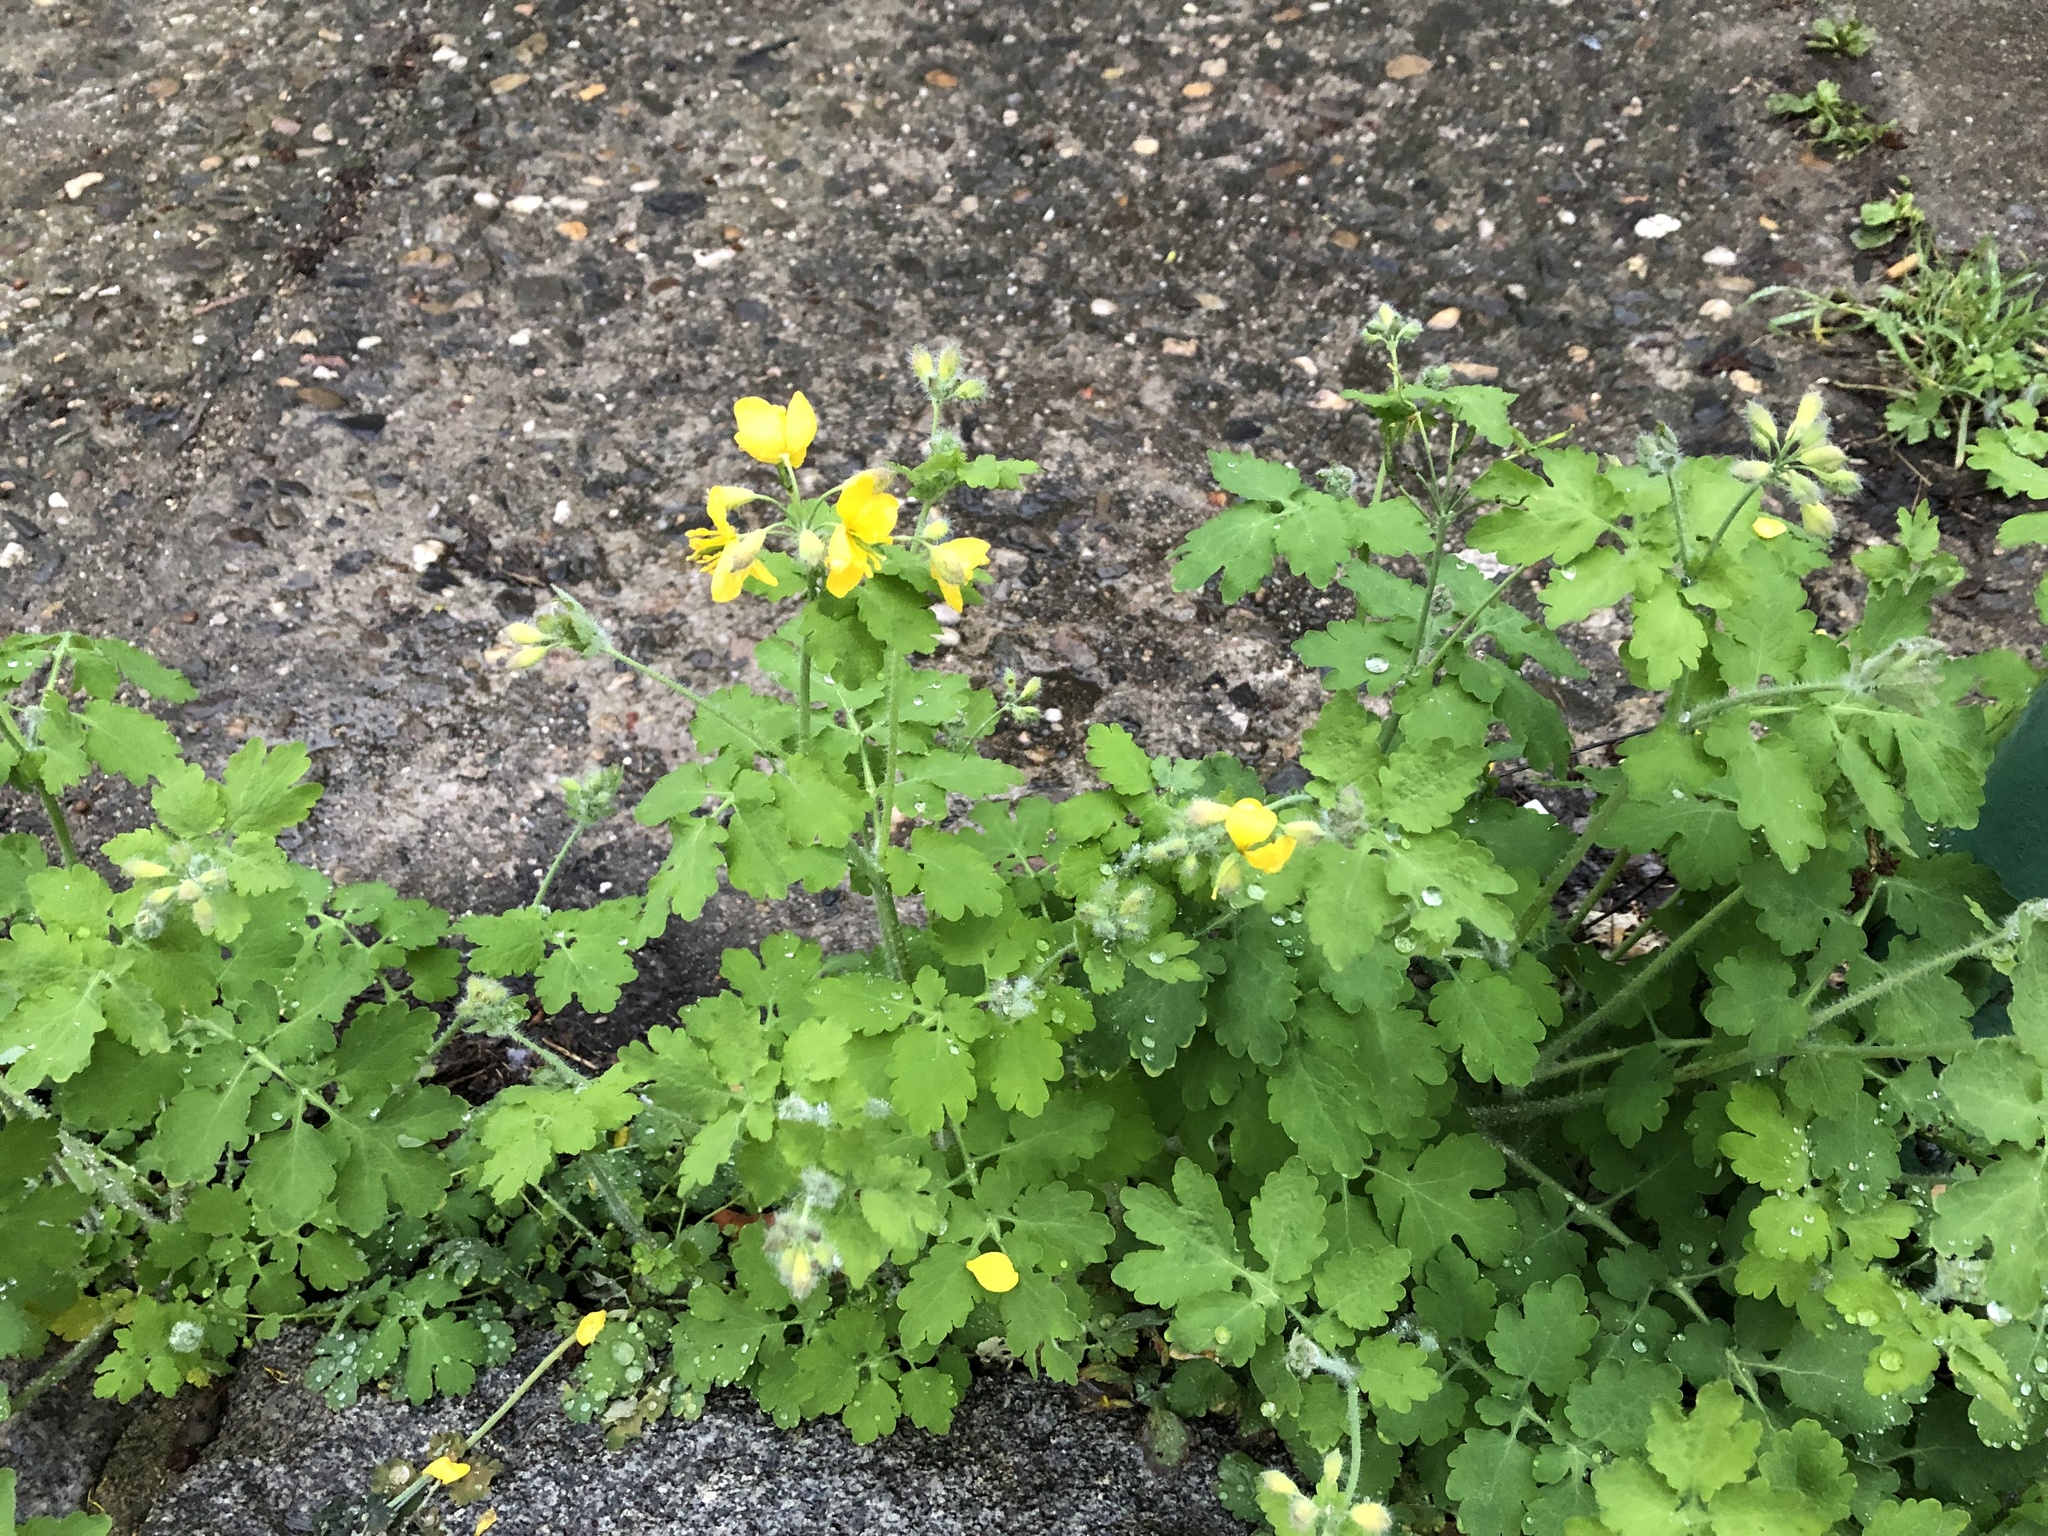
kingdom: Plantae
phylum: Tracheophyta
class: Magnoliopsida
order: Ranunculales
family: Papaveraceae
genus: Chelidonium
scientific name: Chelidonium majus
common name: Greater celandine
